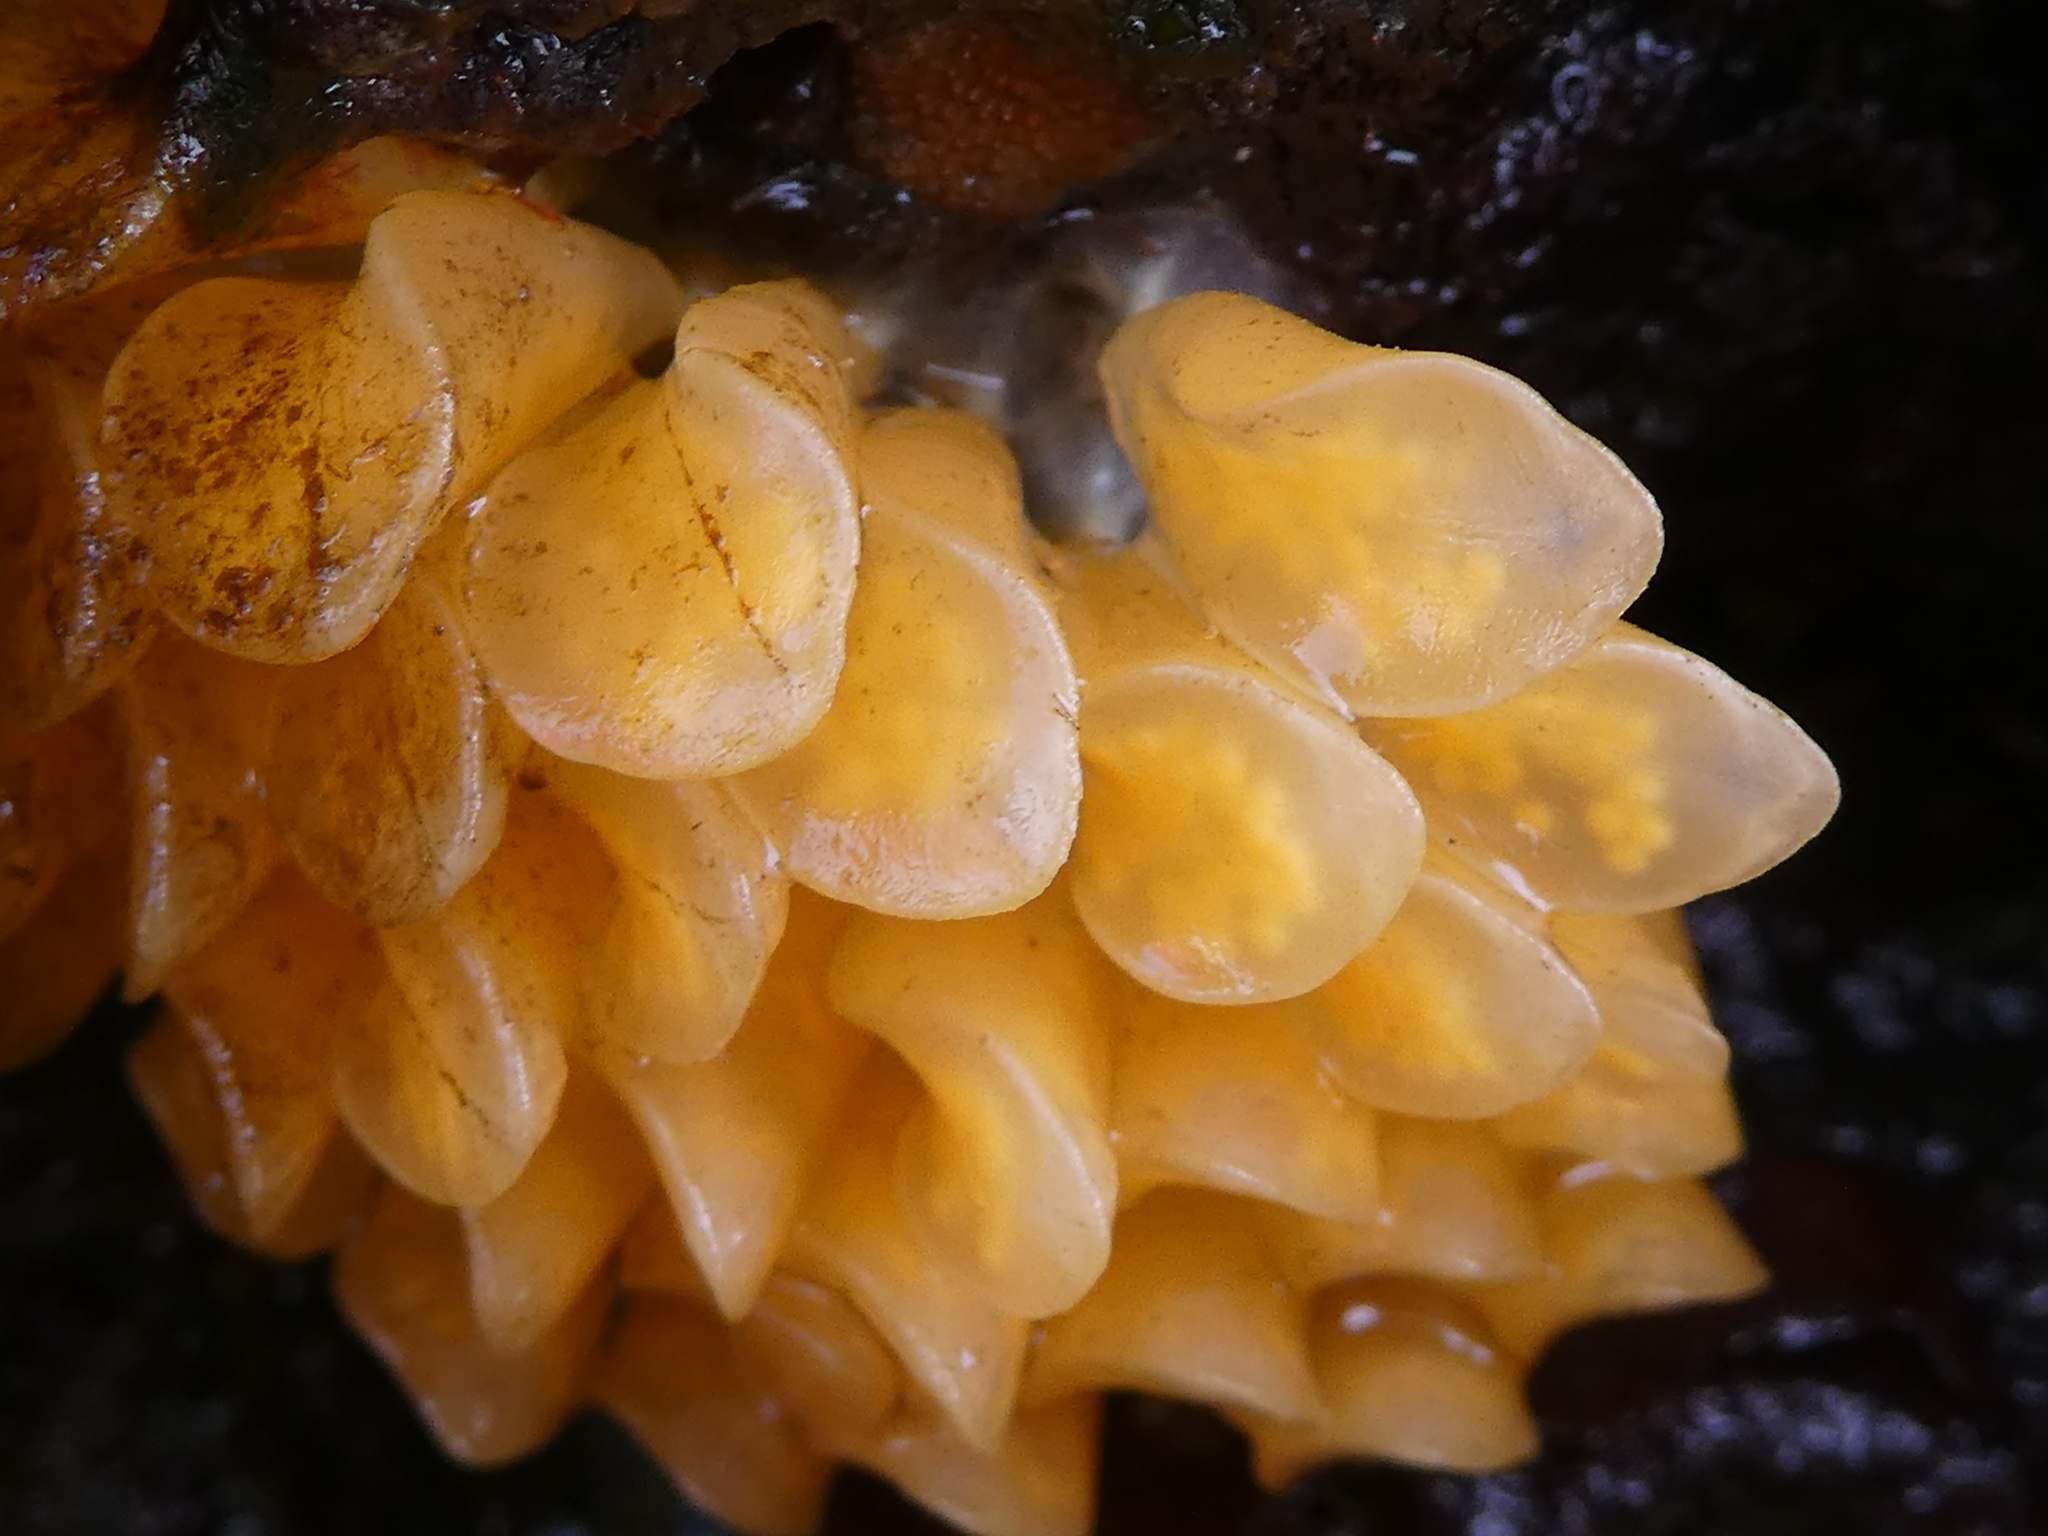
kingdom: Animalia
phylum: Mollusca
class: Gastropoda
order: Neogastropoda
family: Muricidae
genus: Ceratostoma
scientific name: Ceratostoma foliatum
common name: Foliate thorn purpura
